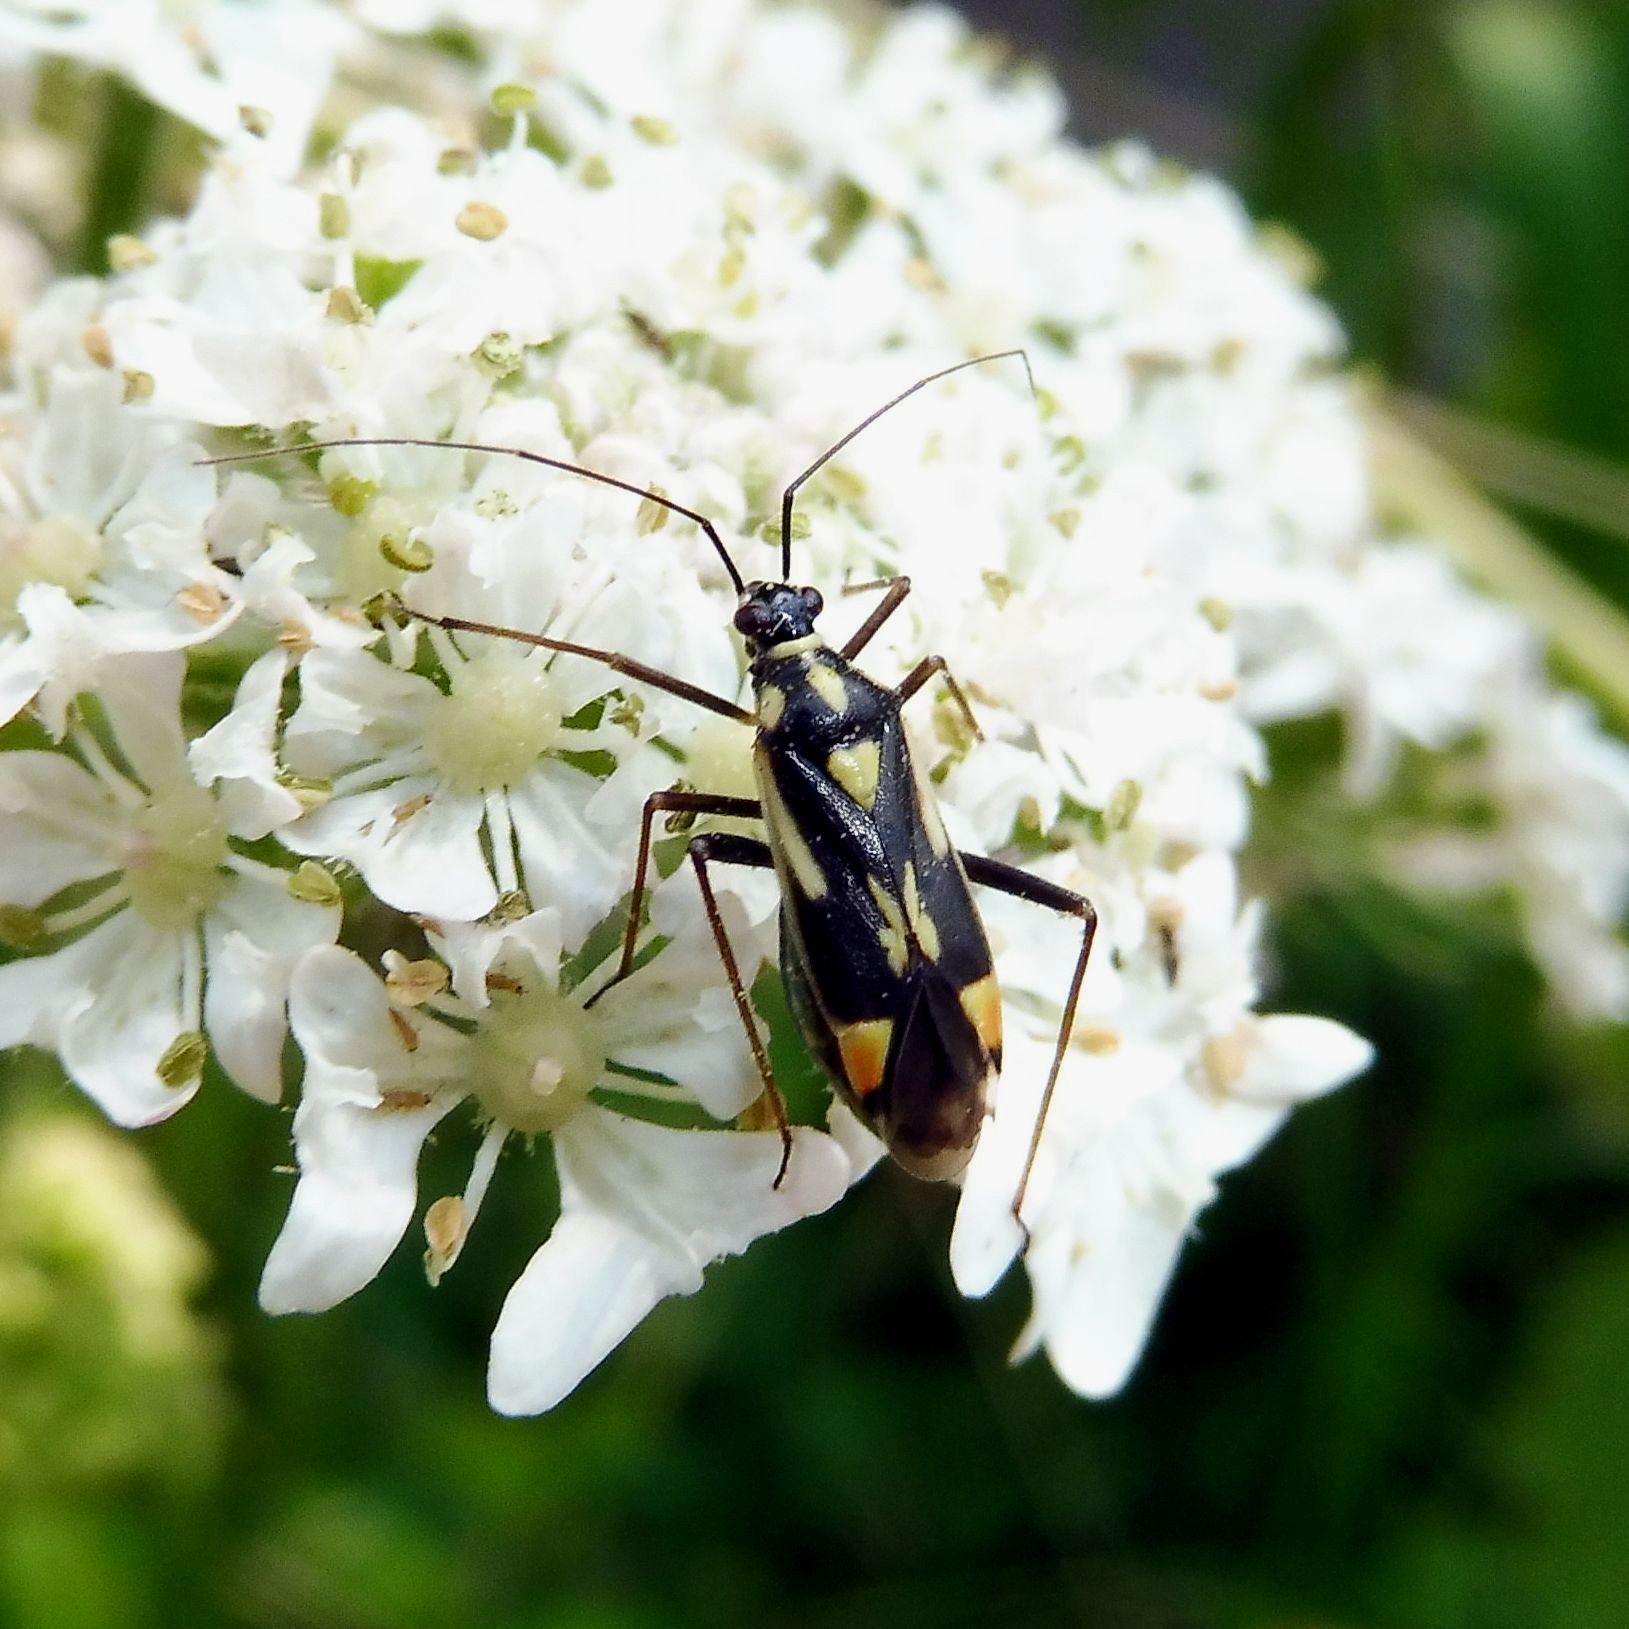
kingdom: Animalia
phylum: Arthropoda
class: Insecta
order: Hemiptera
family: Miridae
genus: Grypocoris
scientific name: Grypocoris stysi
